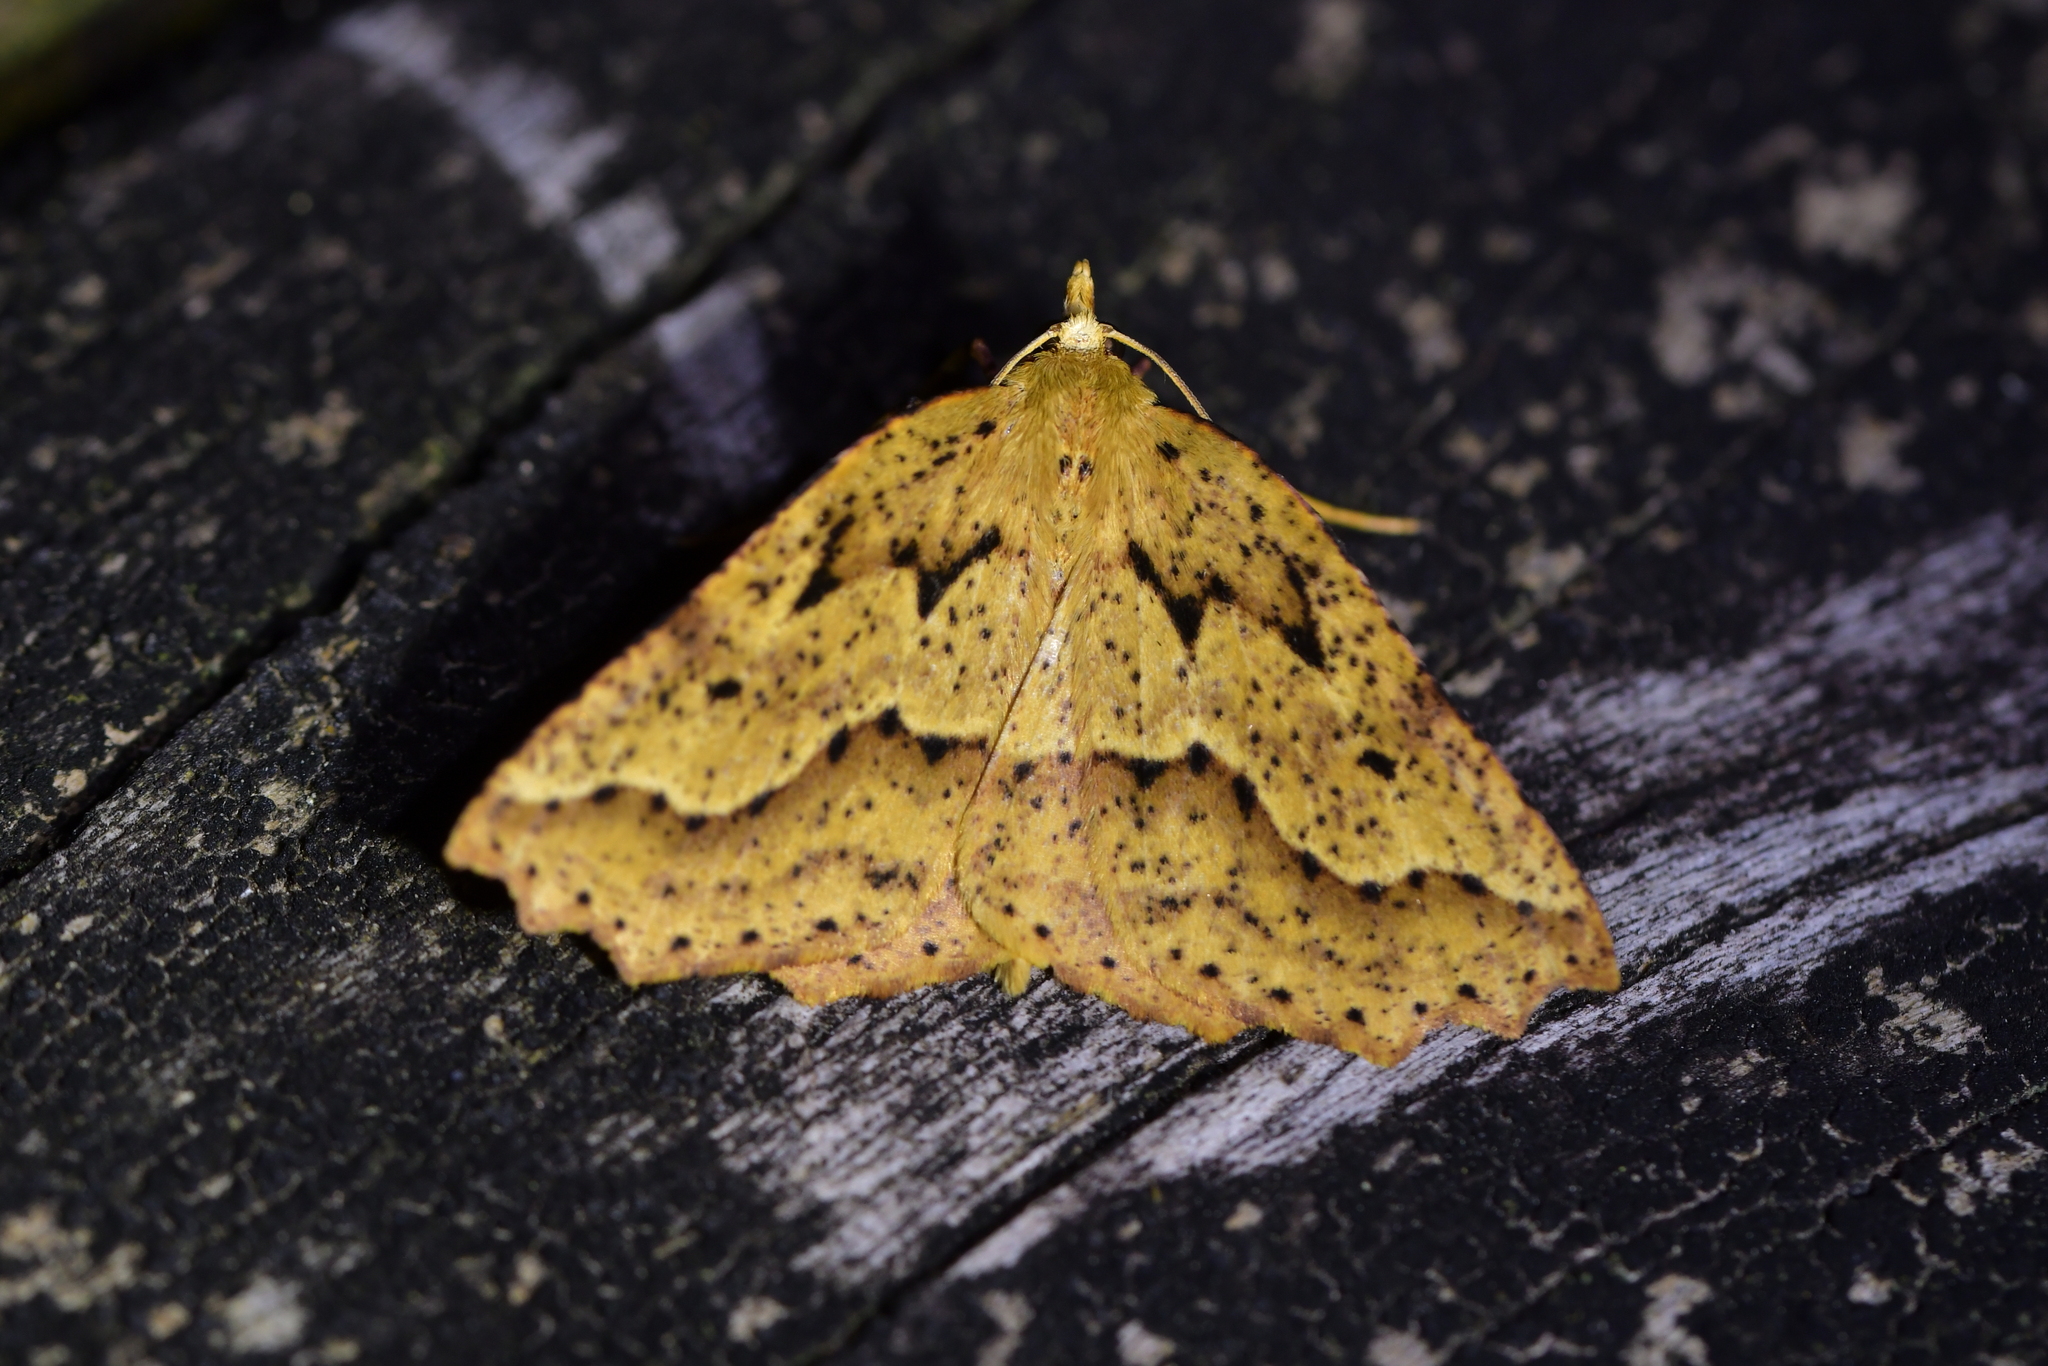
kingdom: Animalia
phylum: Arthropoda
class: Insecta
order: Lepidoptera
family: Geometridae
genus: Ischalis
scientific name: Ischalis variabilis
